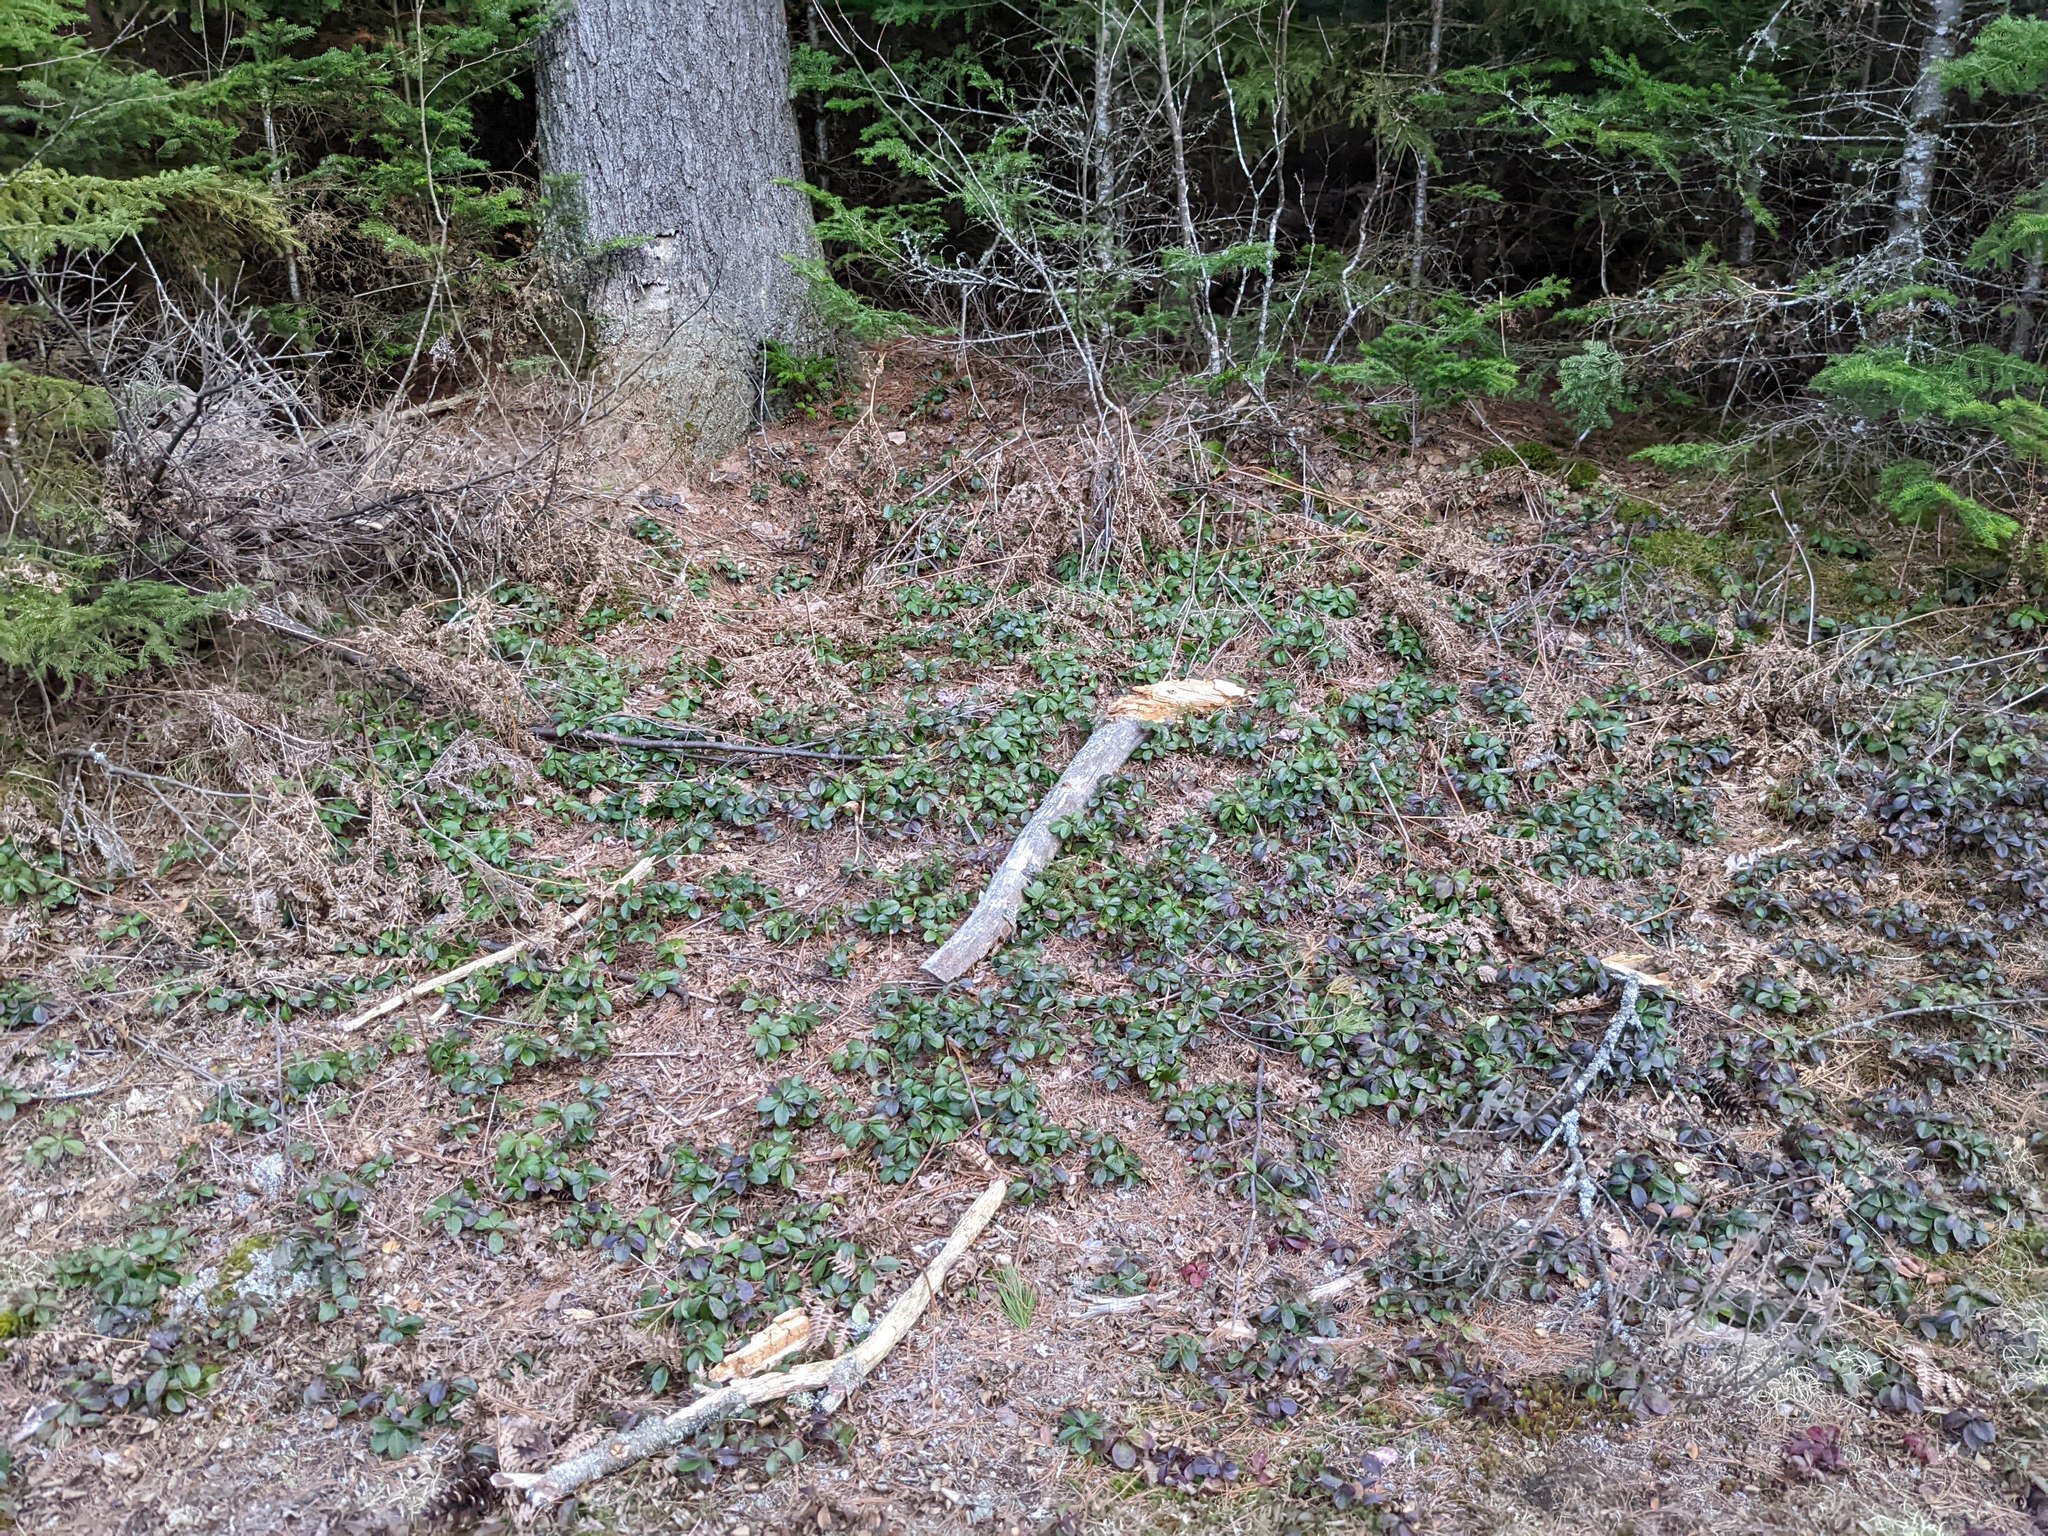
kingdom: Plantae
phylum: Tracheophyta
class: Magnoliopsida
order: Ericales
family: Ericaceae
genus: Gaultheria
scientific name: Gaultheria procumbens
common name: Checkerberry
